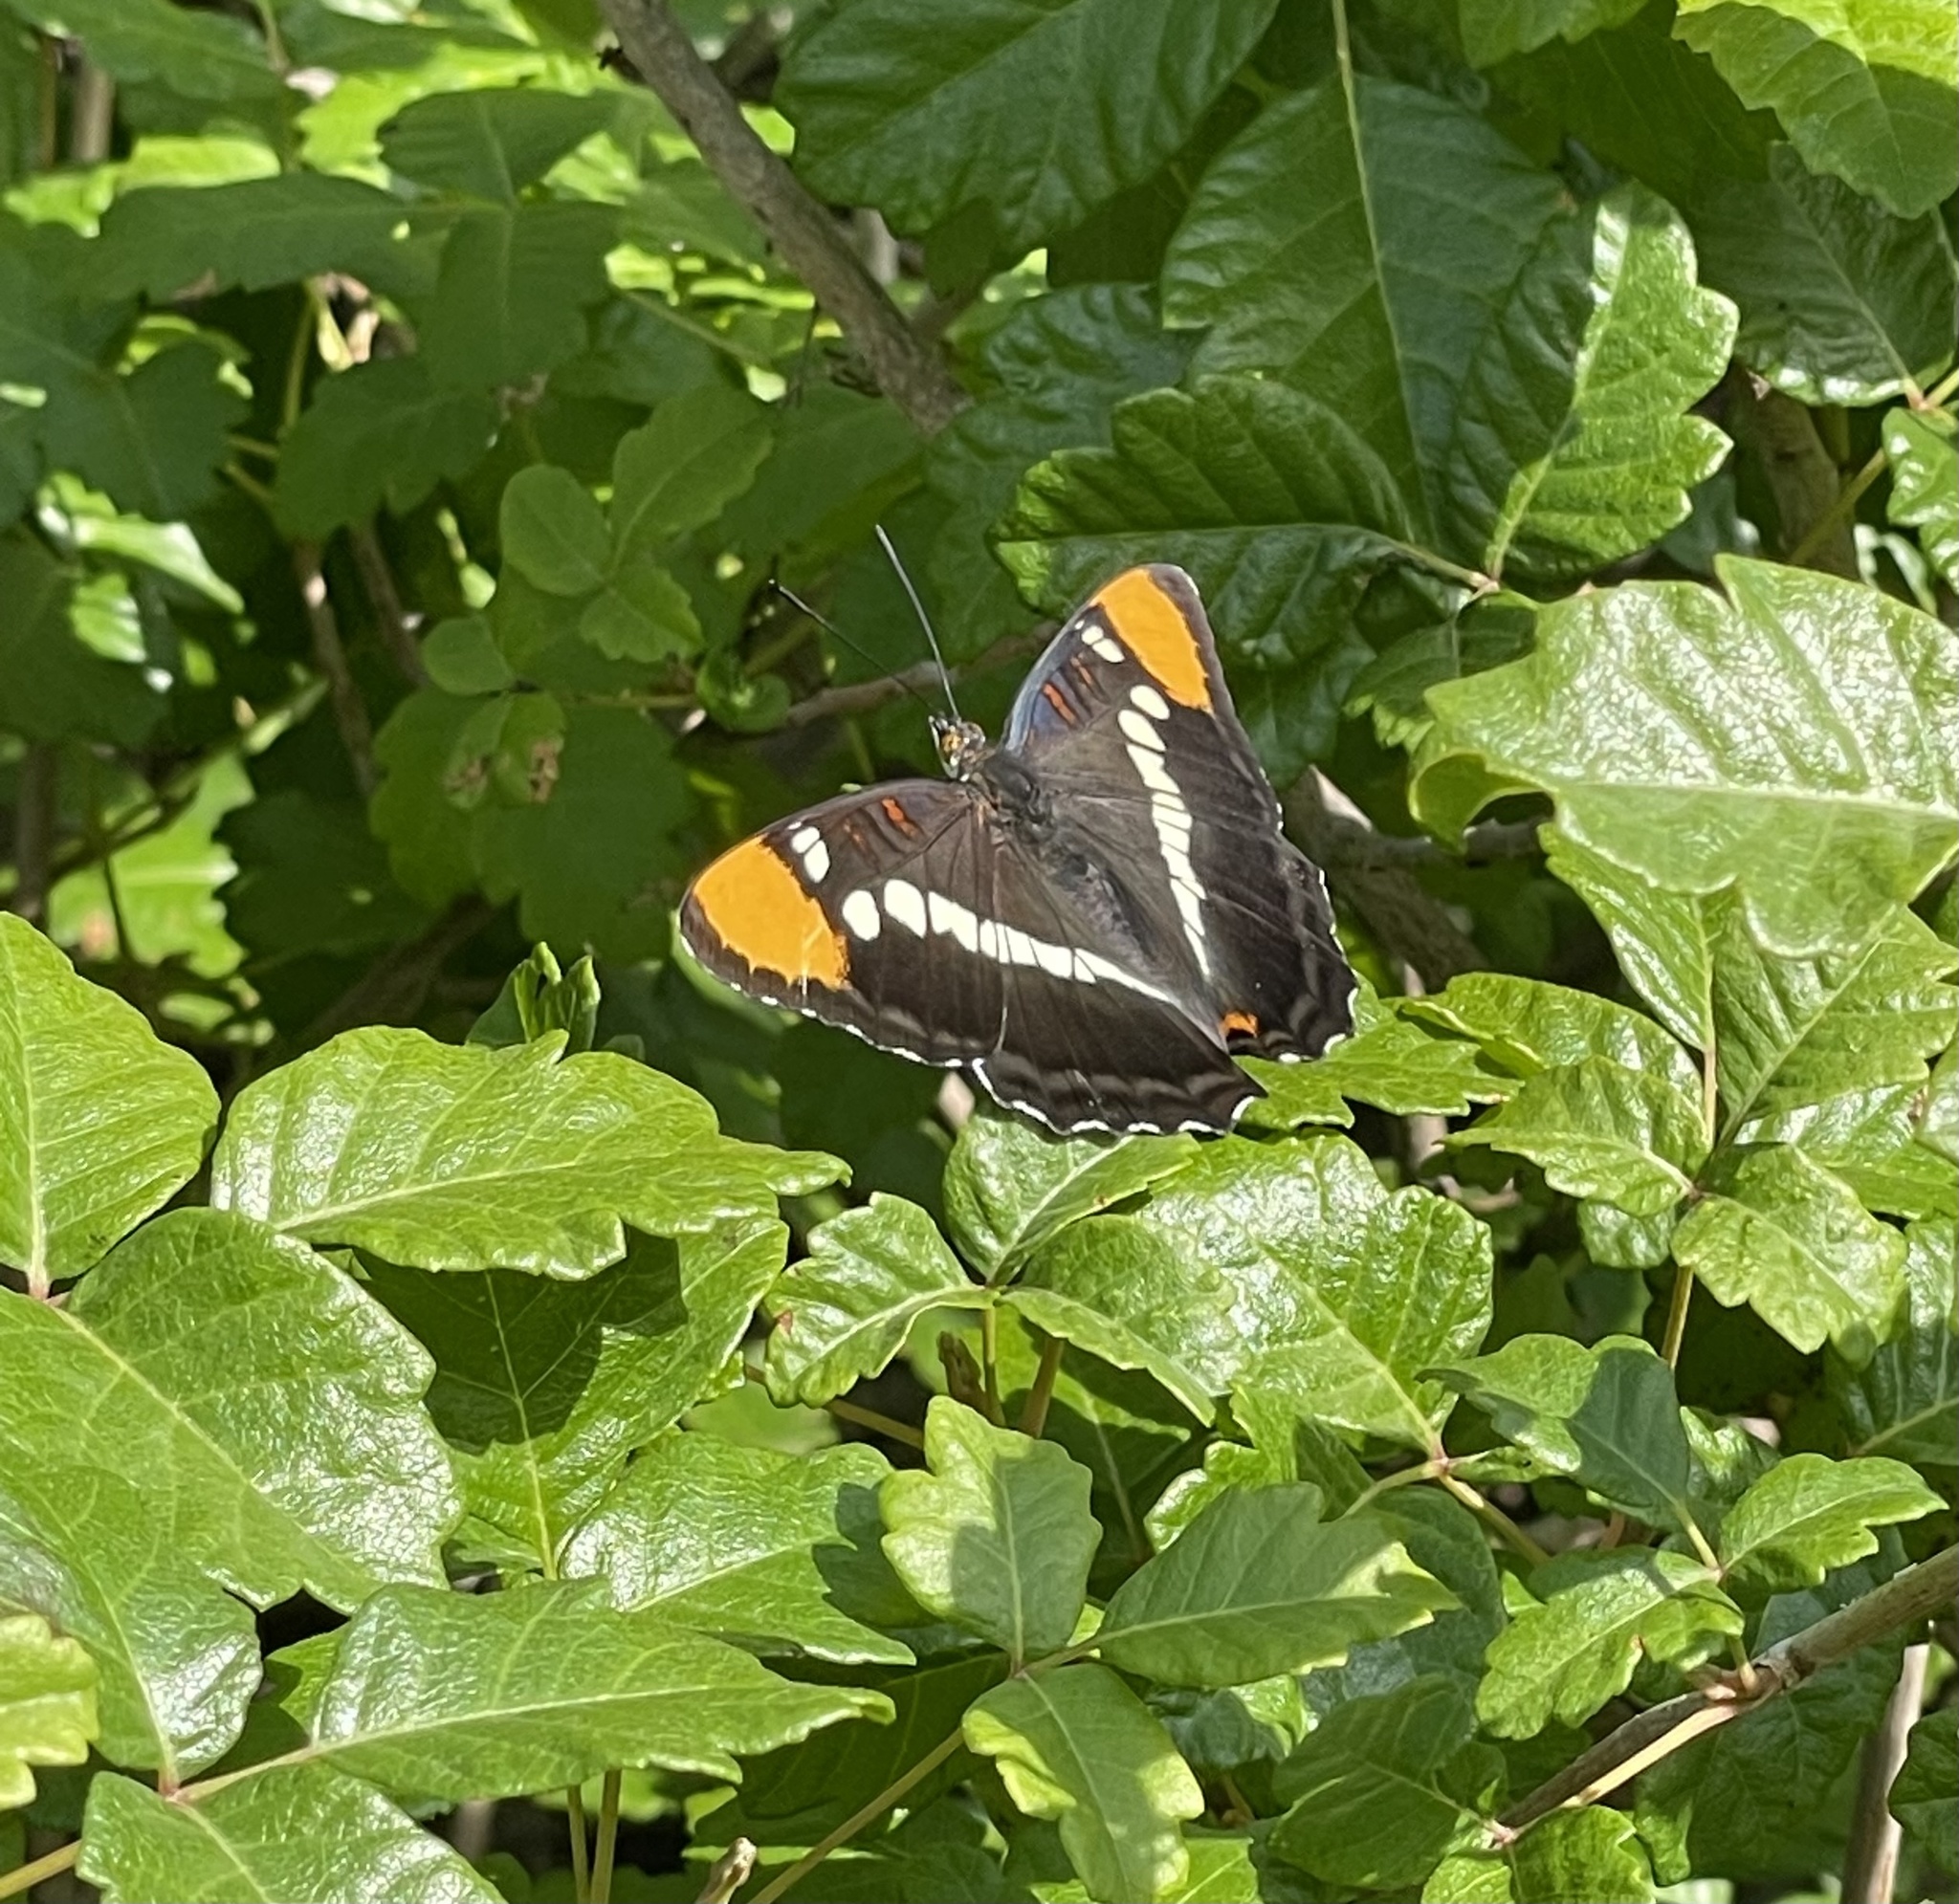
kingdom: Animalia
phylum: Arthropoda
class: Insecta
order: Lepidoptera
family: Nymphalidae
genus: Limenitis
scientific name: Limenitis bredowii
